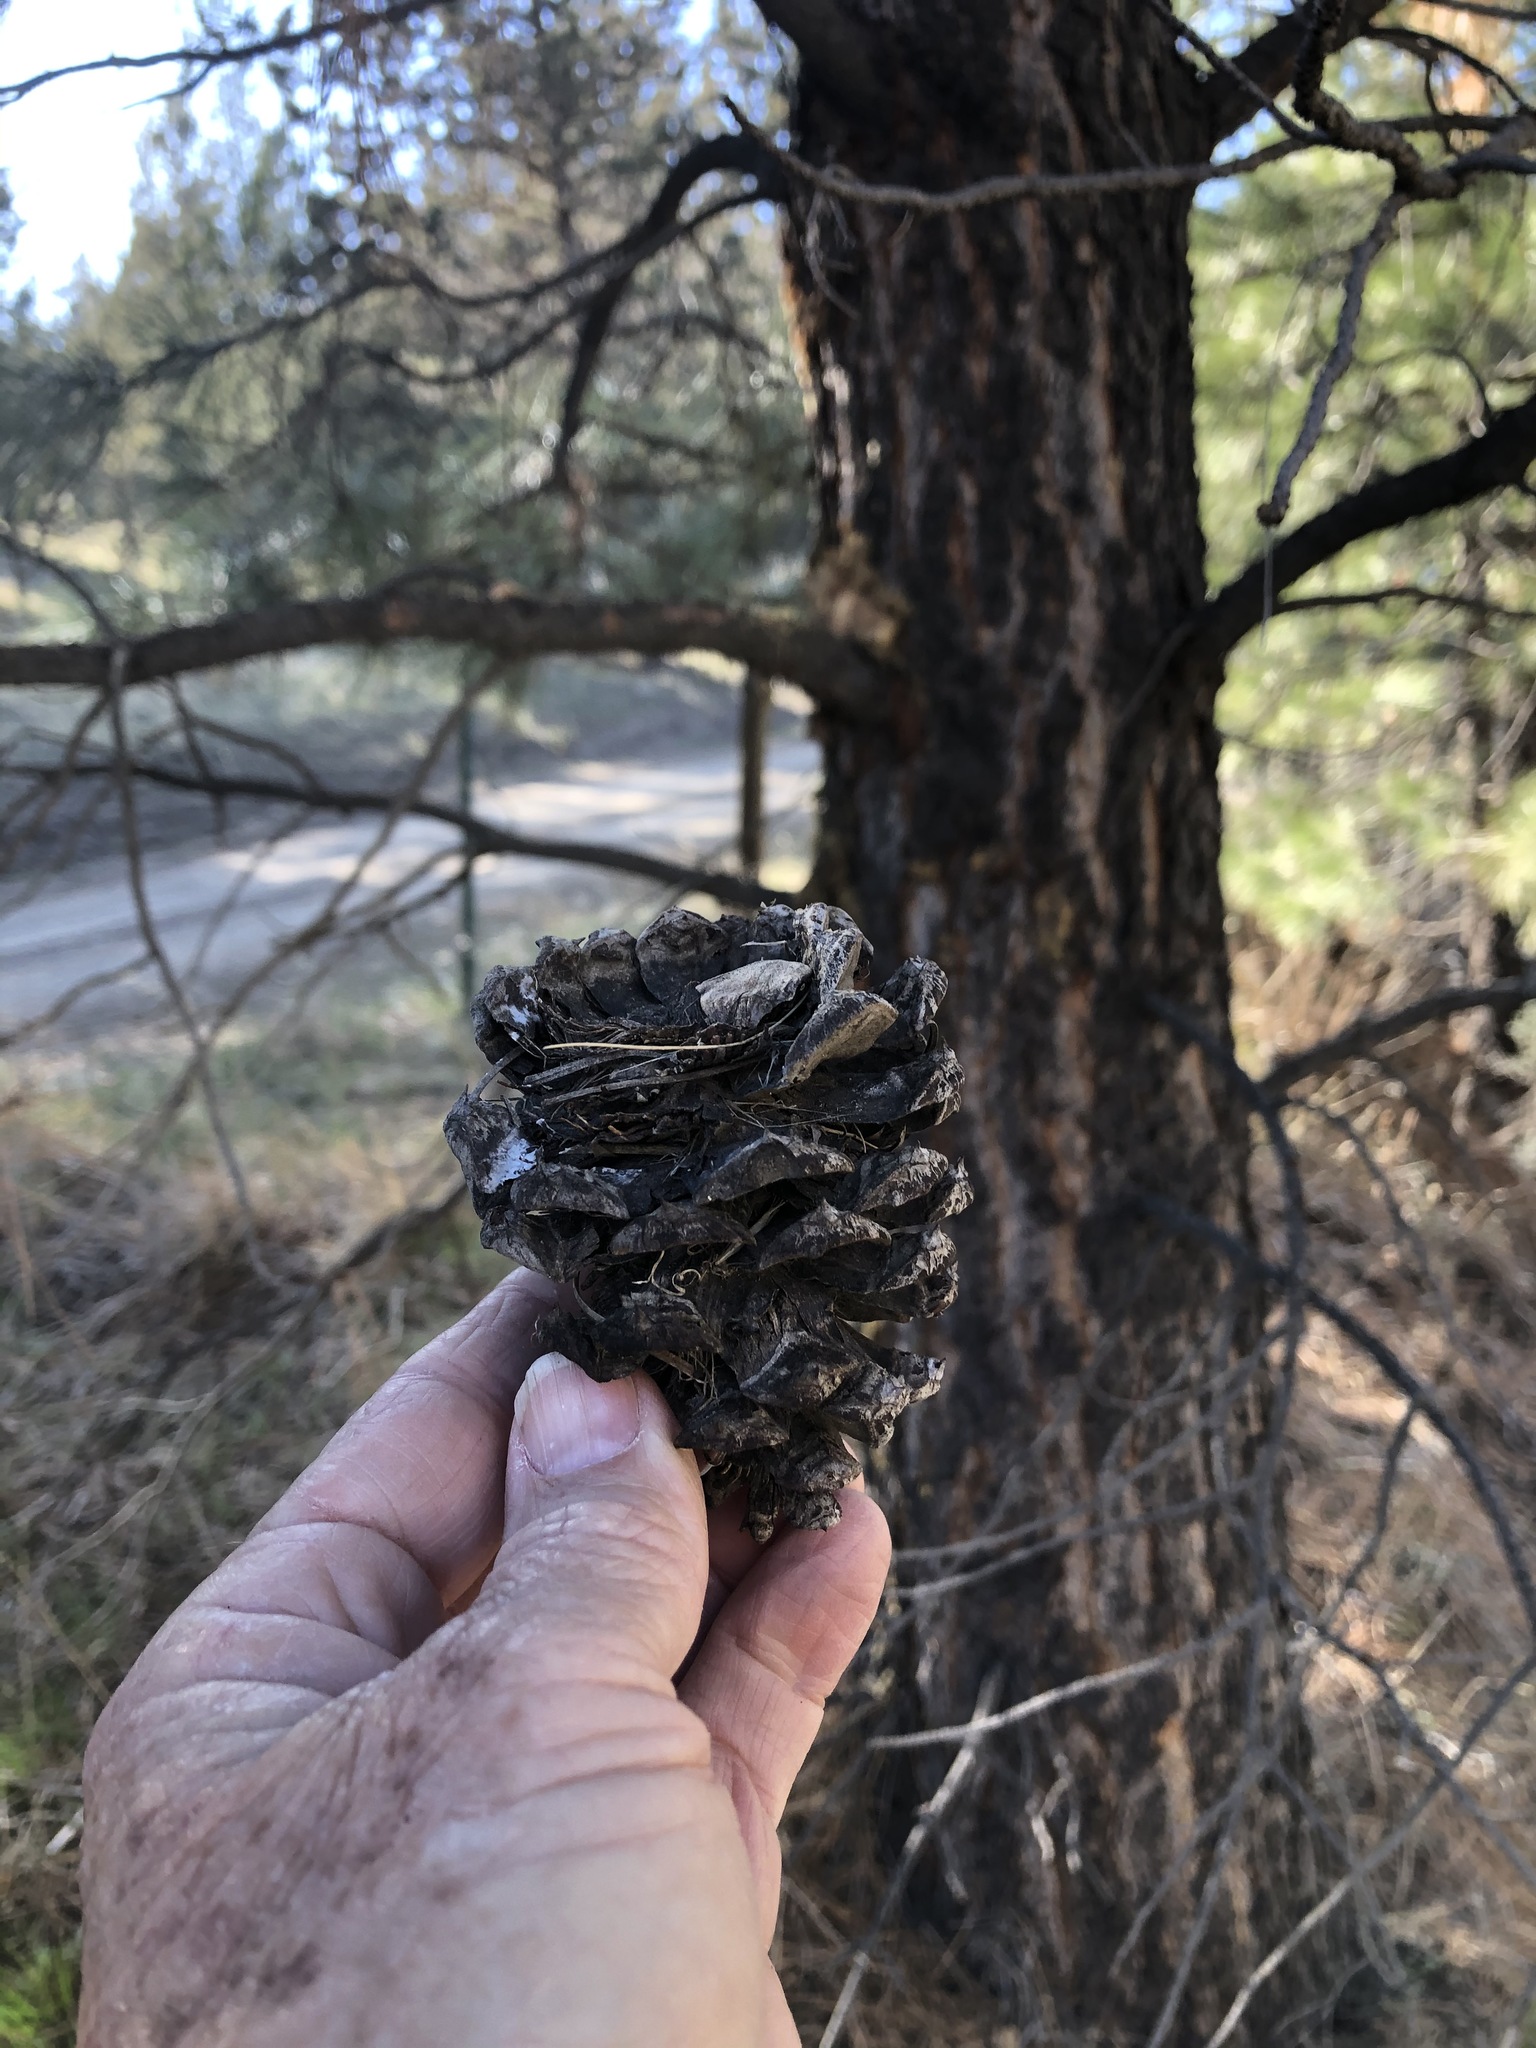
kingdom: Plantae
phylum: Tracheophyta
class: Pinopsida
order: Pinales
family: Pinaceae
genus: Pinus
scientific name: Pinus ponderosa
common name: Western yellow-pine
